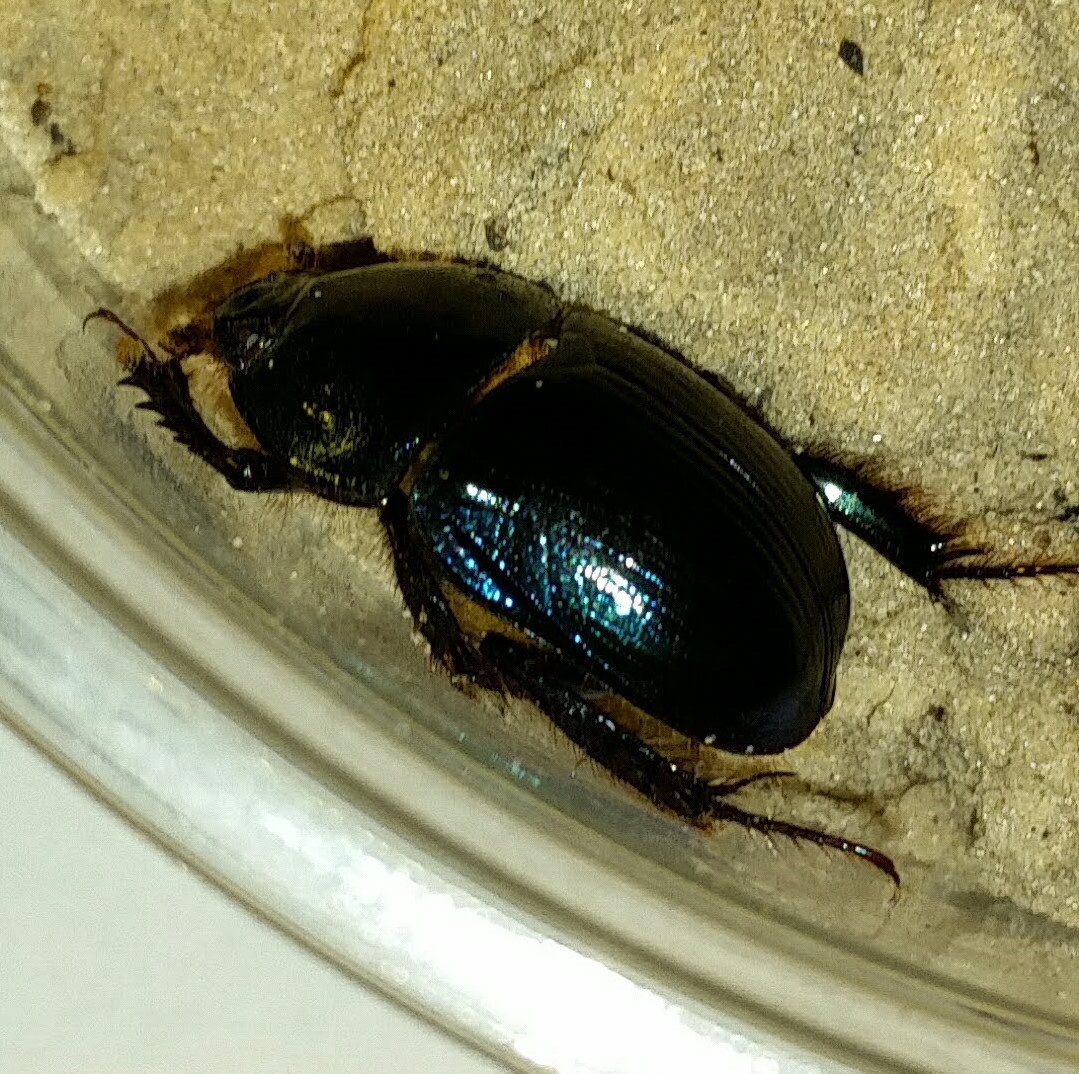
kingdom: Animalia
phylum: Arthropoda
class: Insecta
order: Coleoptera
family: Geotrupidae
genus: Peltotrupes
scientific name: Peltotrupes profundus
